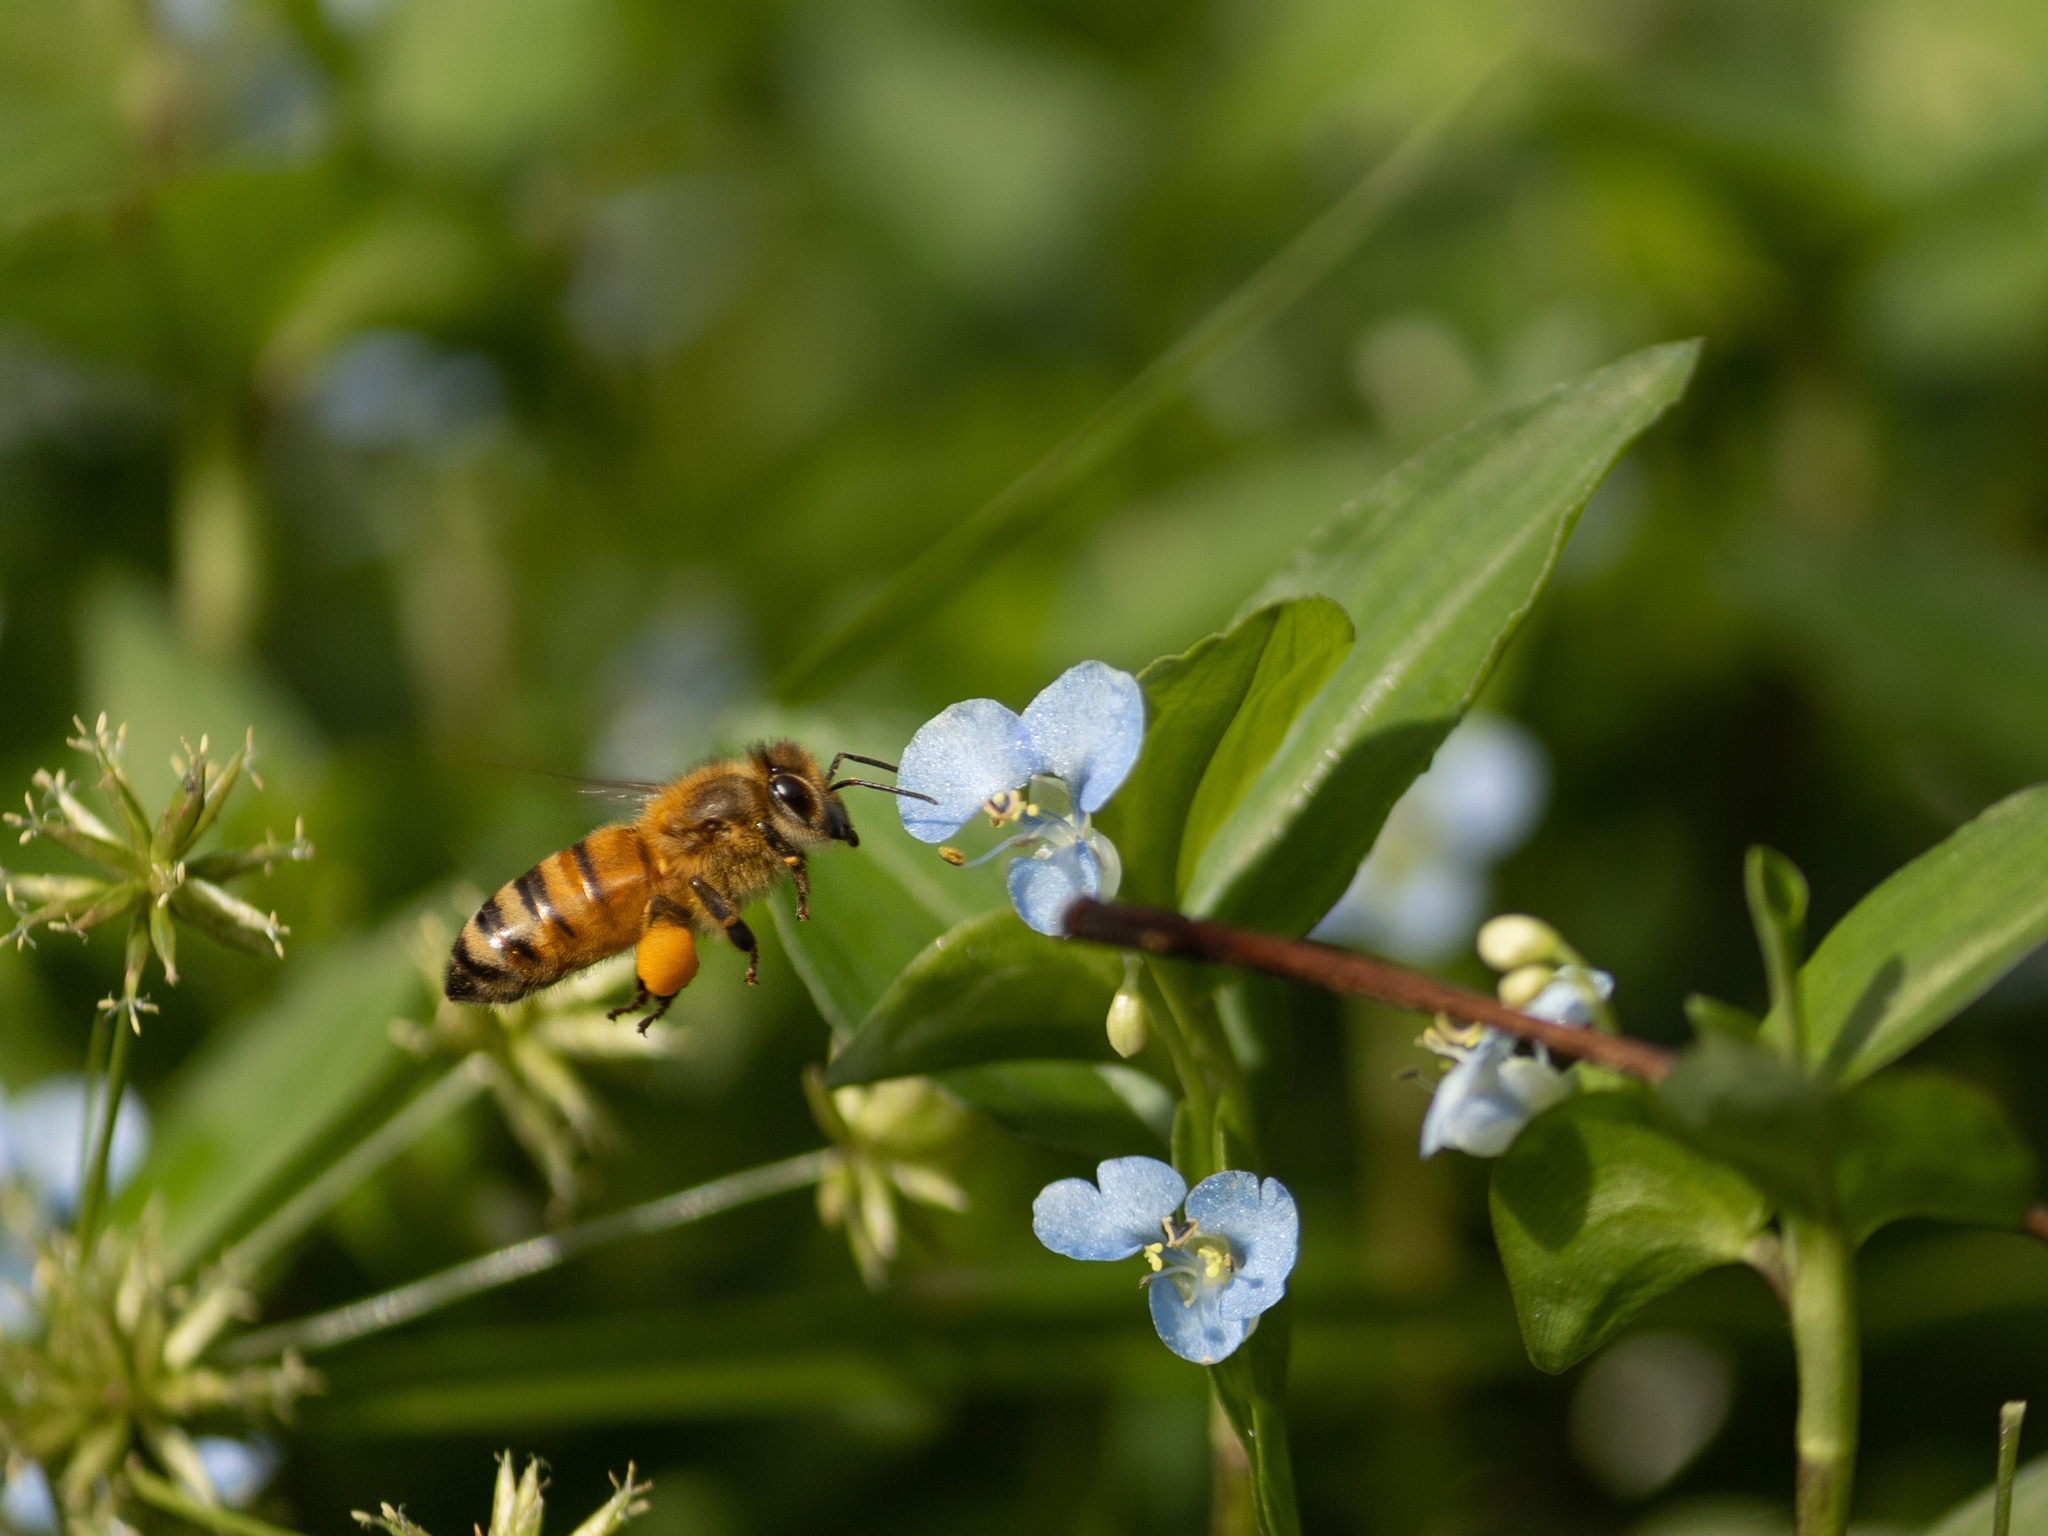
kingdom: Animalia
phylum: Arthropoda
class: Insecta
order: Hymenoptera
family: Apidae
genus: Apis
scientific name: Apis mellifera
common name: Honey bee
